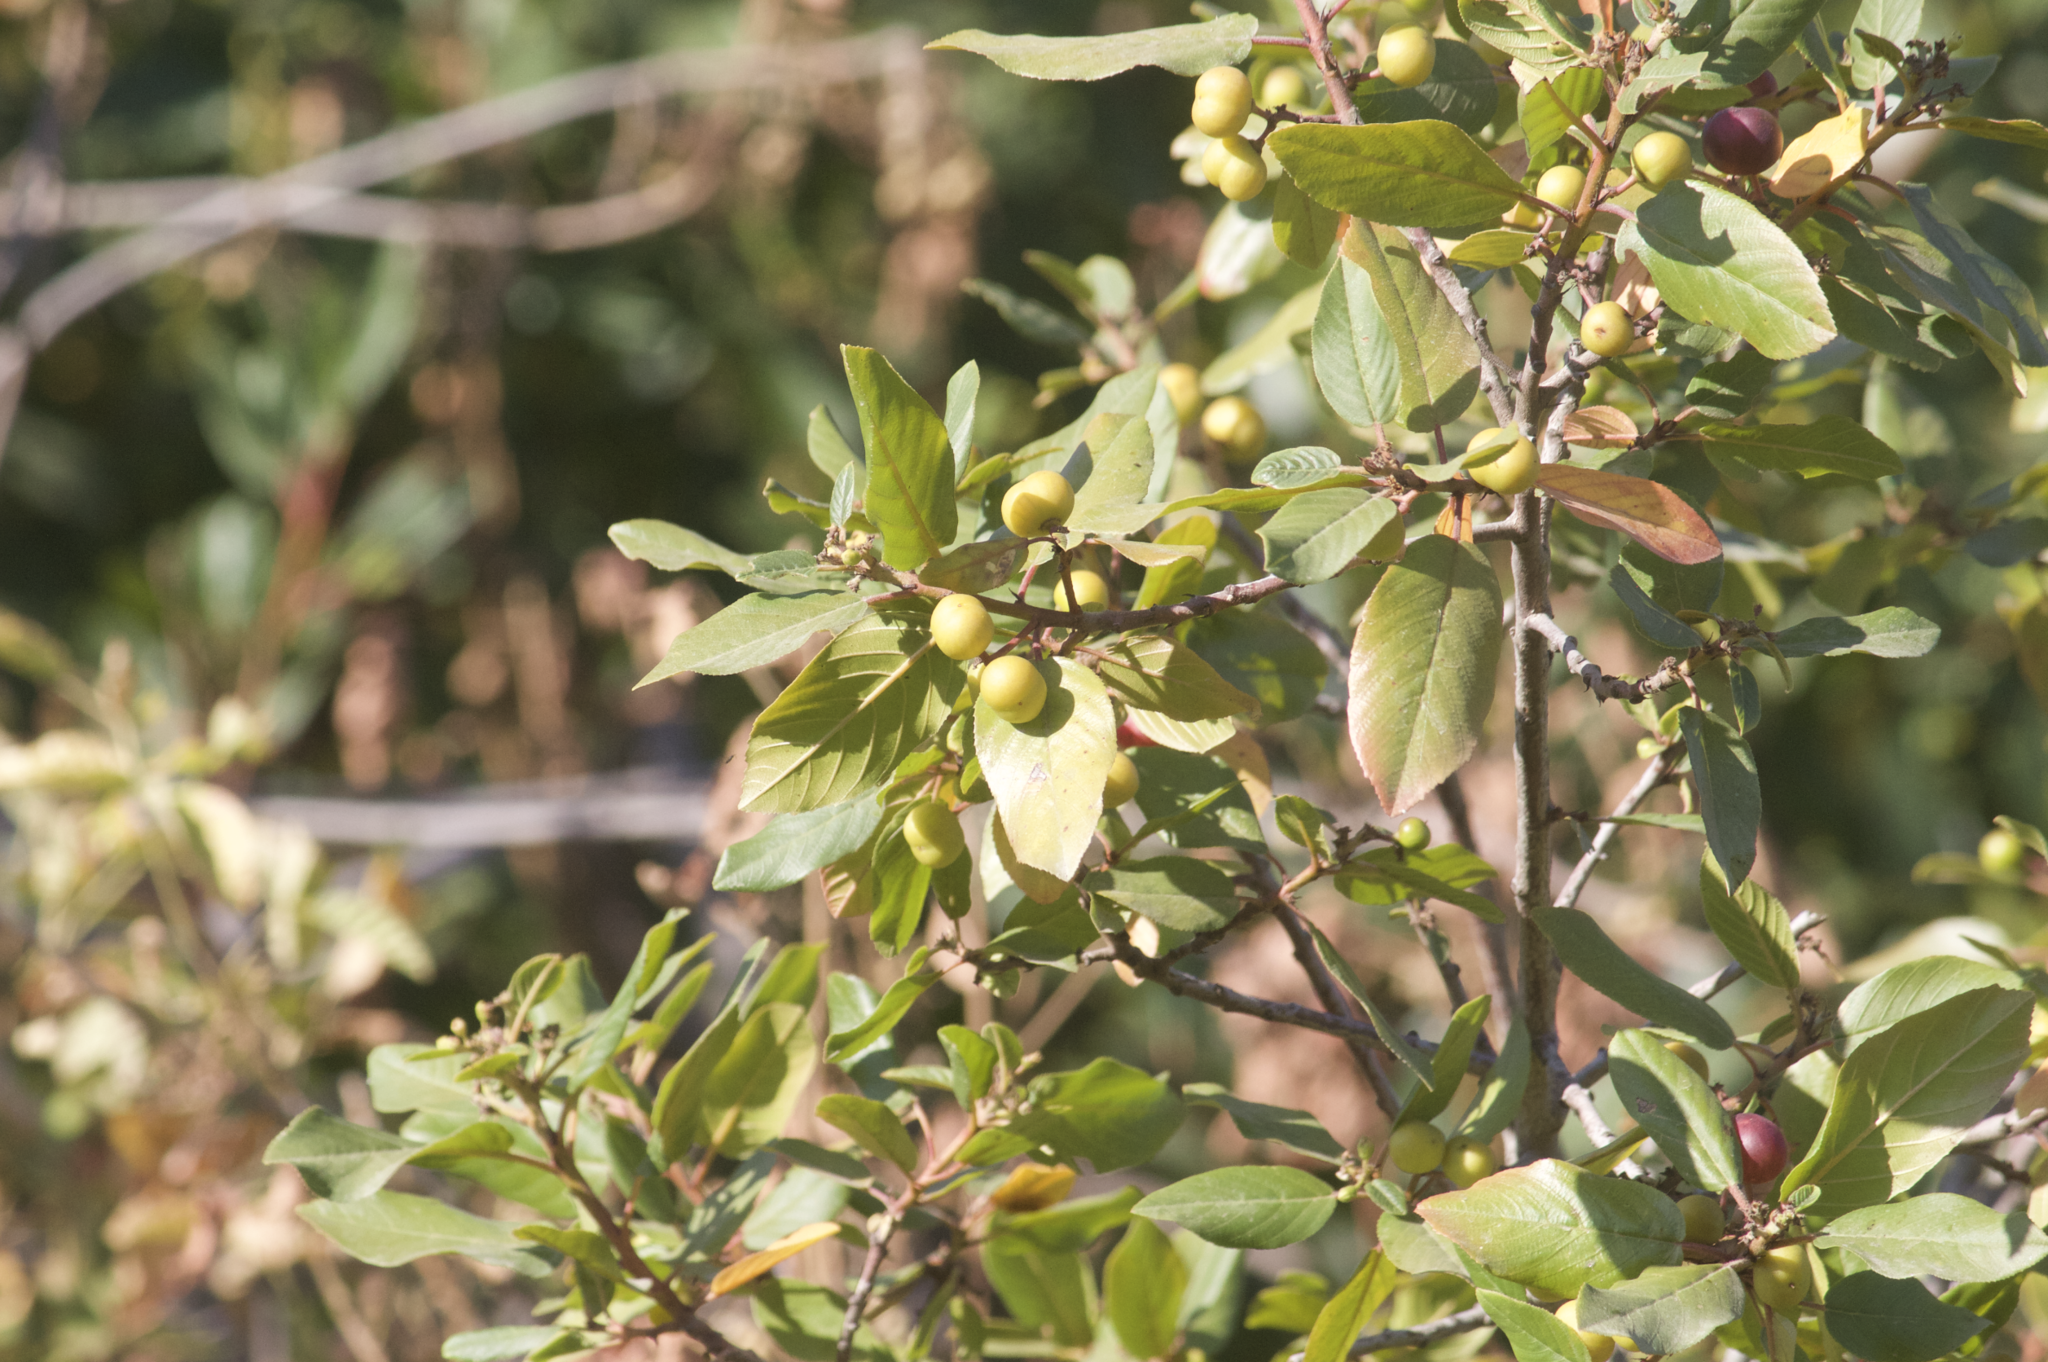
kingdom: Plantae
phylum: Tracheophyta
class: Magnoliopsida
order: Rosales
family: Rhamnaceae
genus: Frangula
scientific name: Frangula californica
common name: California buckthorn
